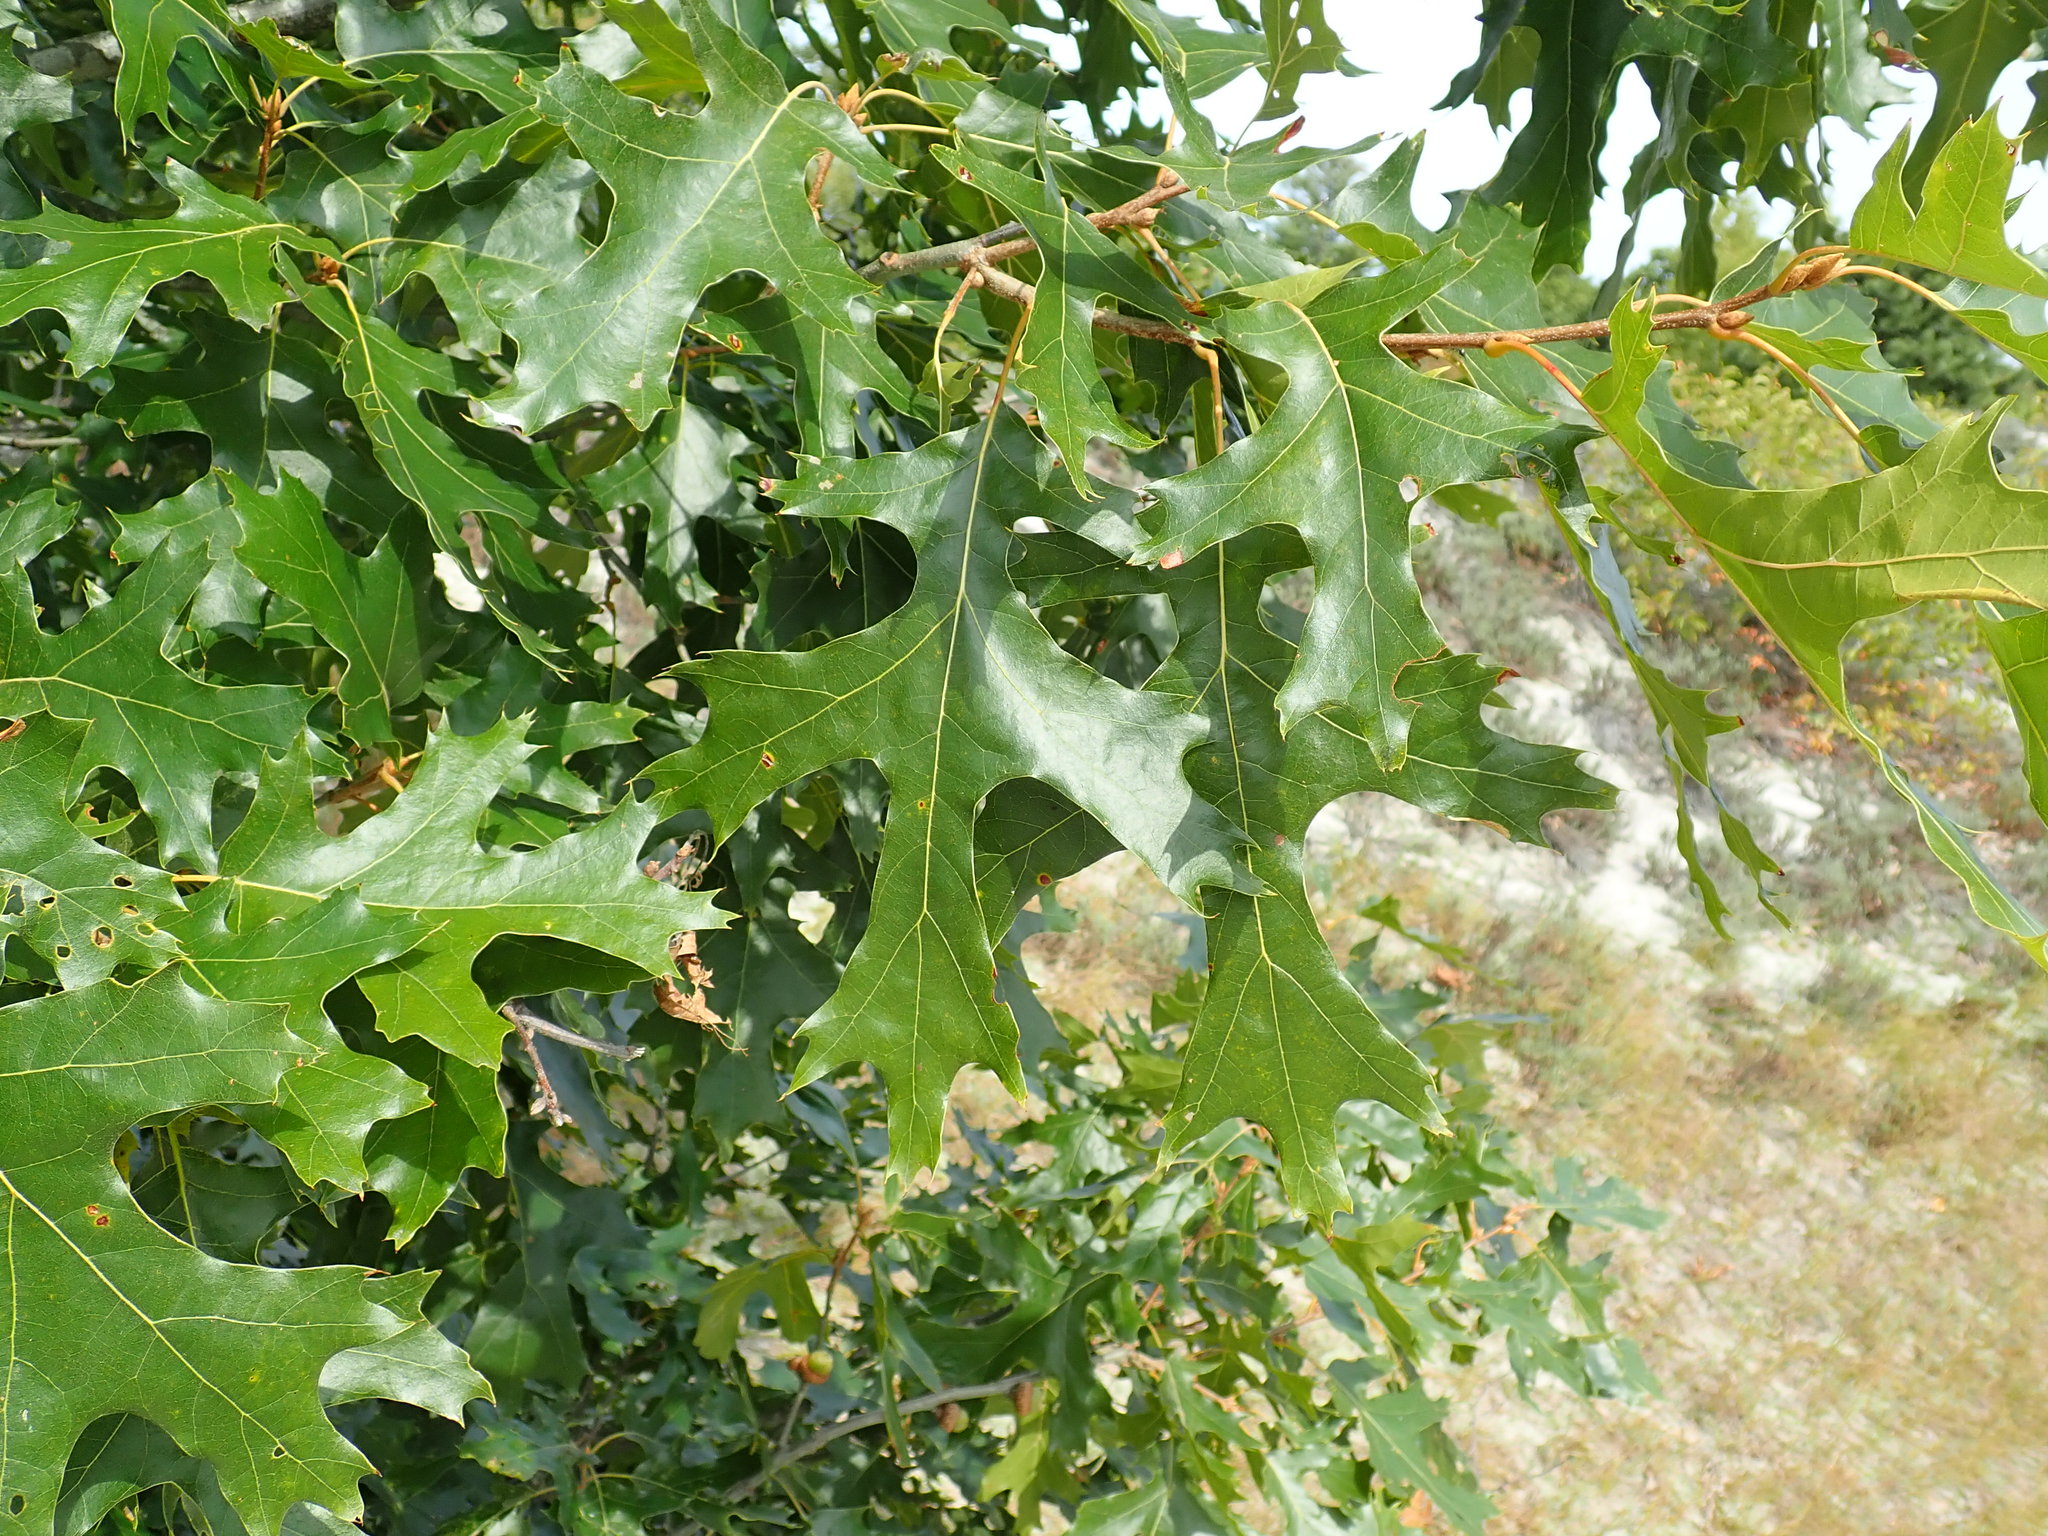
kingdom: Plantae
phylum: Tracheophyta
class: Magnoliopsida
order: Fagales
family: Fagaceae
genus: Quercus
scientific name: Quercus velutina
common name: Black oak
